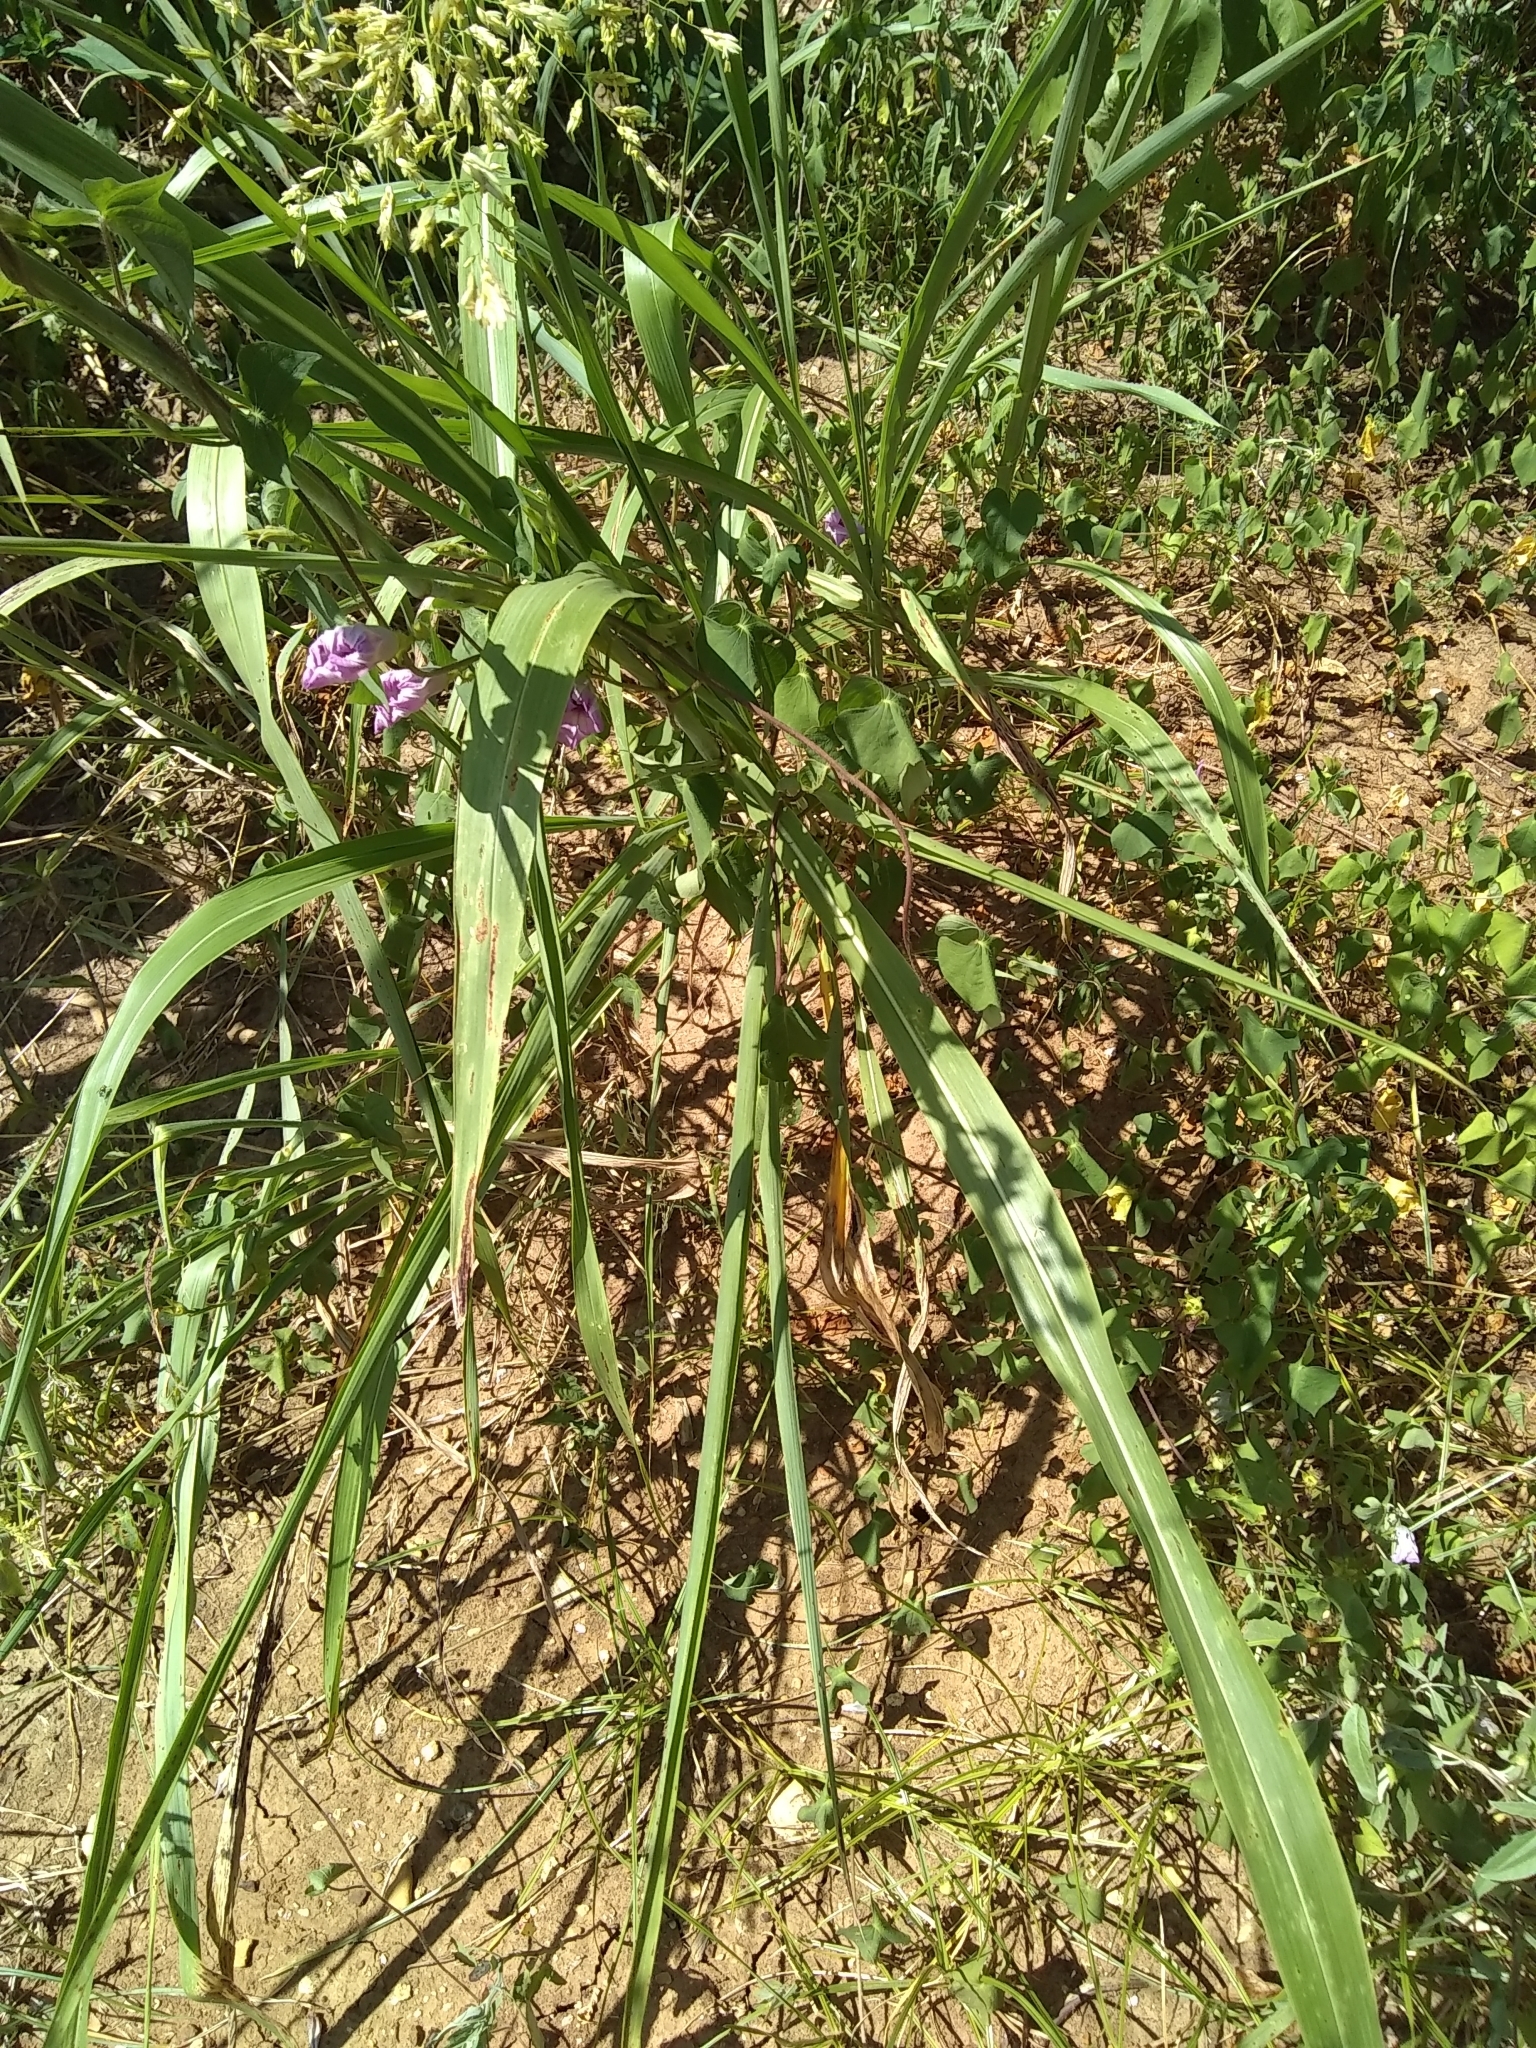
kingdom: Plantae
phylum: Tracheophyta
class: Liliopsida
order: Poales
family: Poaceae
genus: Sorghum
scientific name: Sorghum halepense
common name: Johnson-grass
